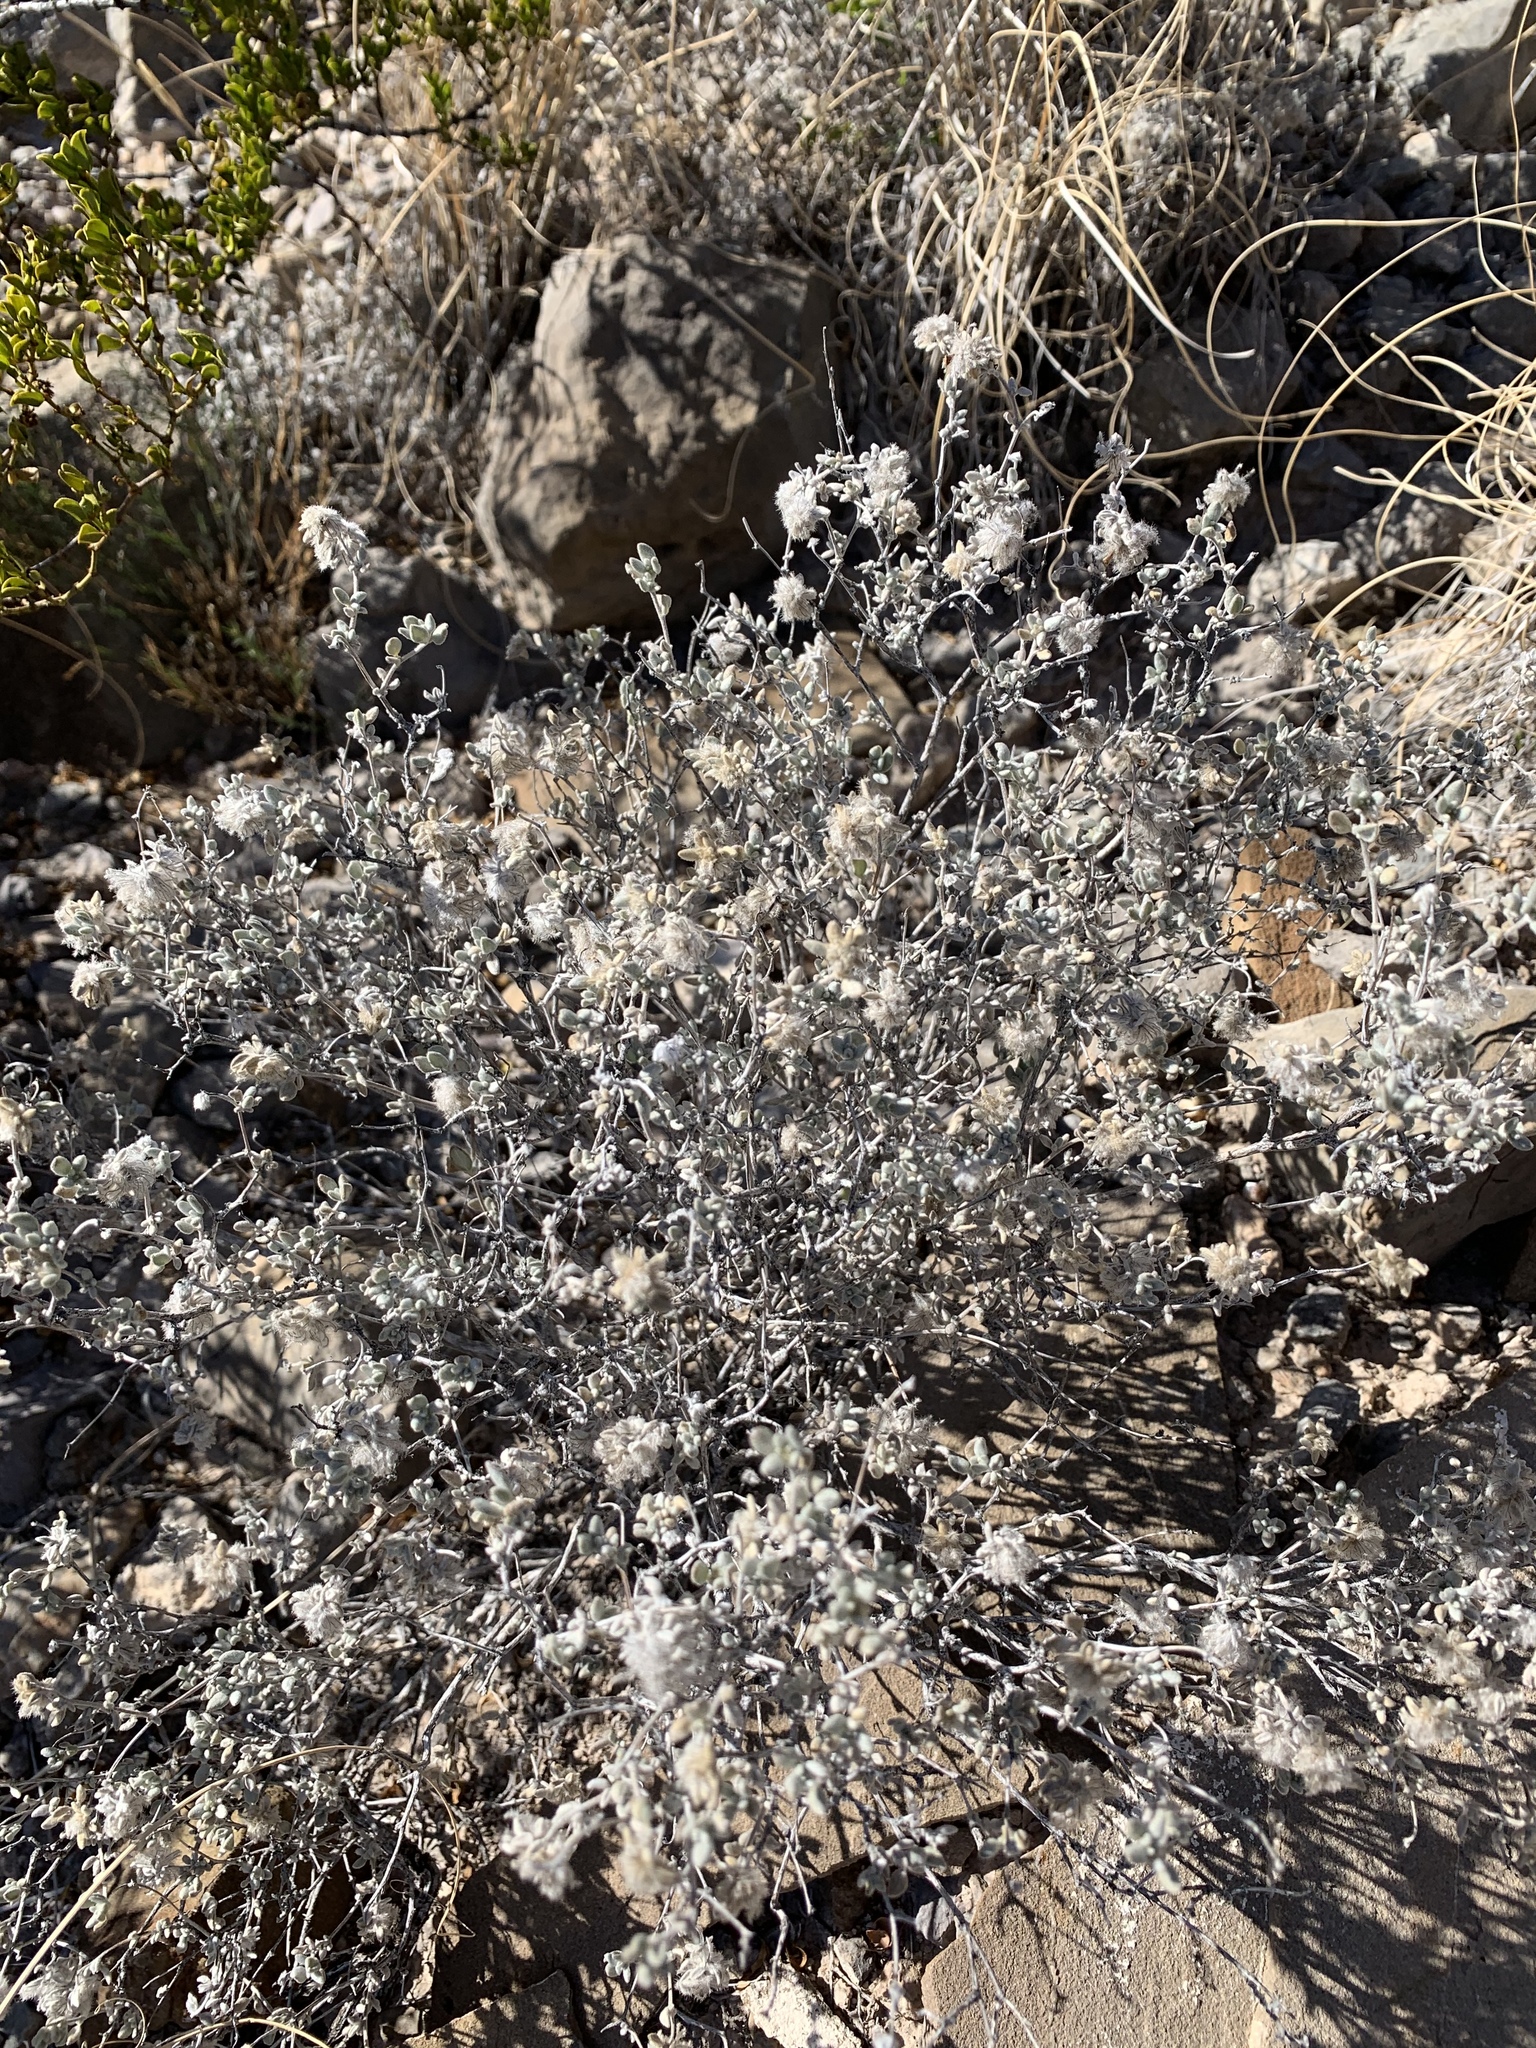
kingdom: Plantae
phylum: Tracheophyta
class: Magnoliopsida
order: Boraginales
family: Ehretiaceae
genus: Tiquilia
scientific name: Tiquilia greggii
